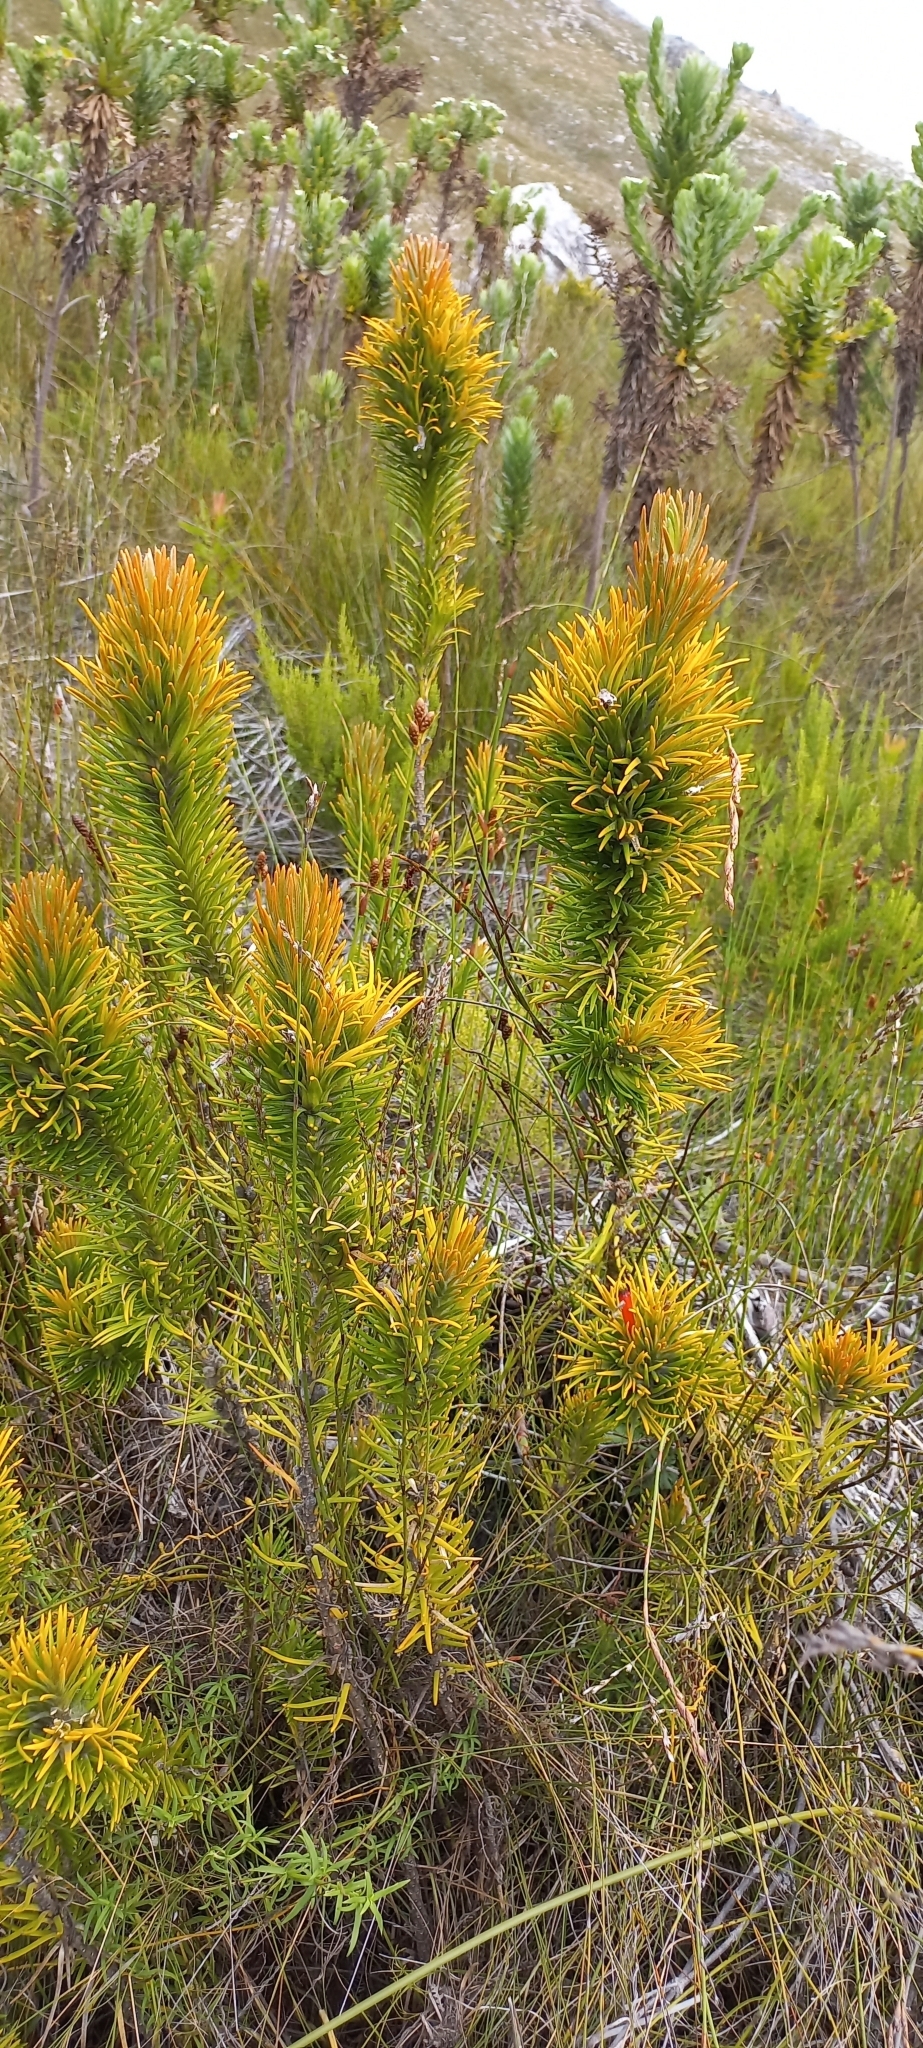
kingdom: Plantae
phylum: Tracheophyta
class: Magnoliopsida
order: Lamiales
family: Stilbaceae
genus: Retzia
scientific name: Retzia capensis
